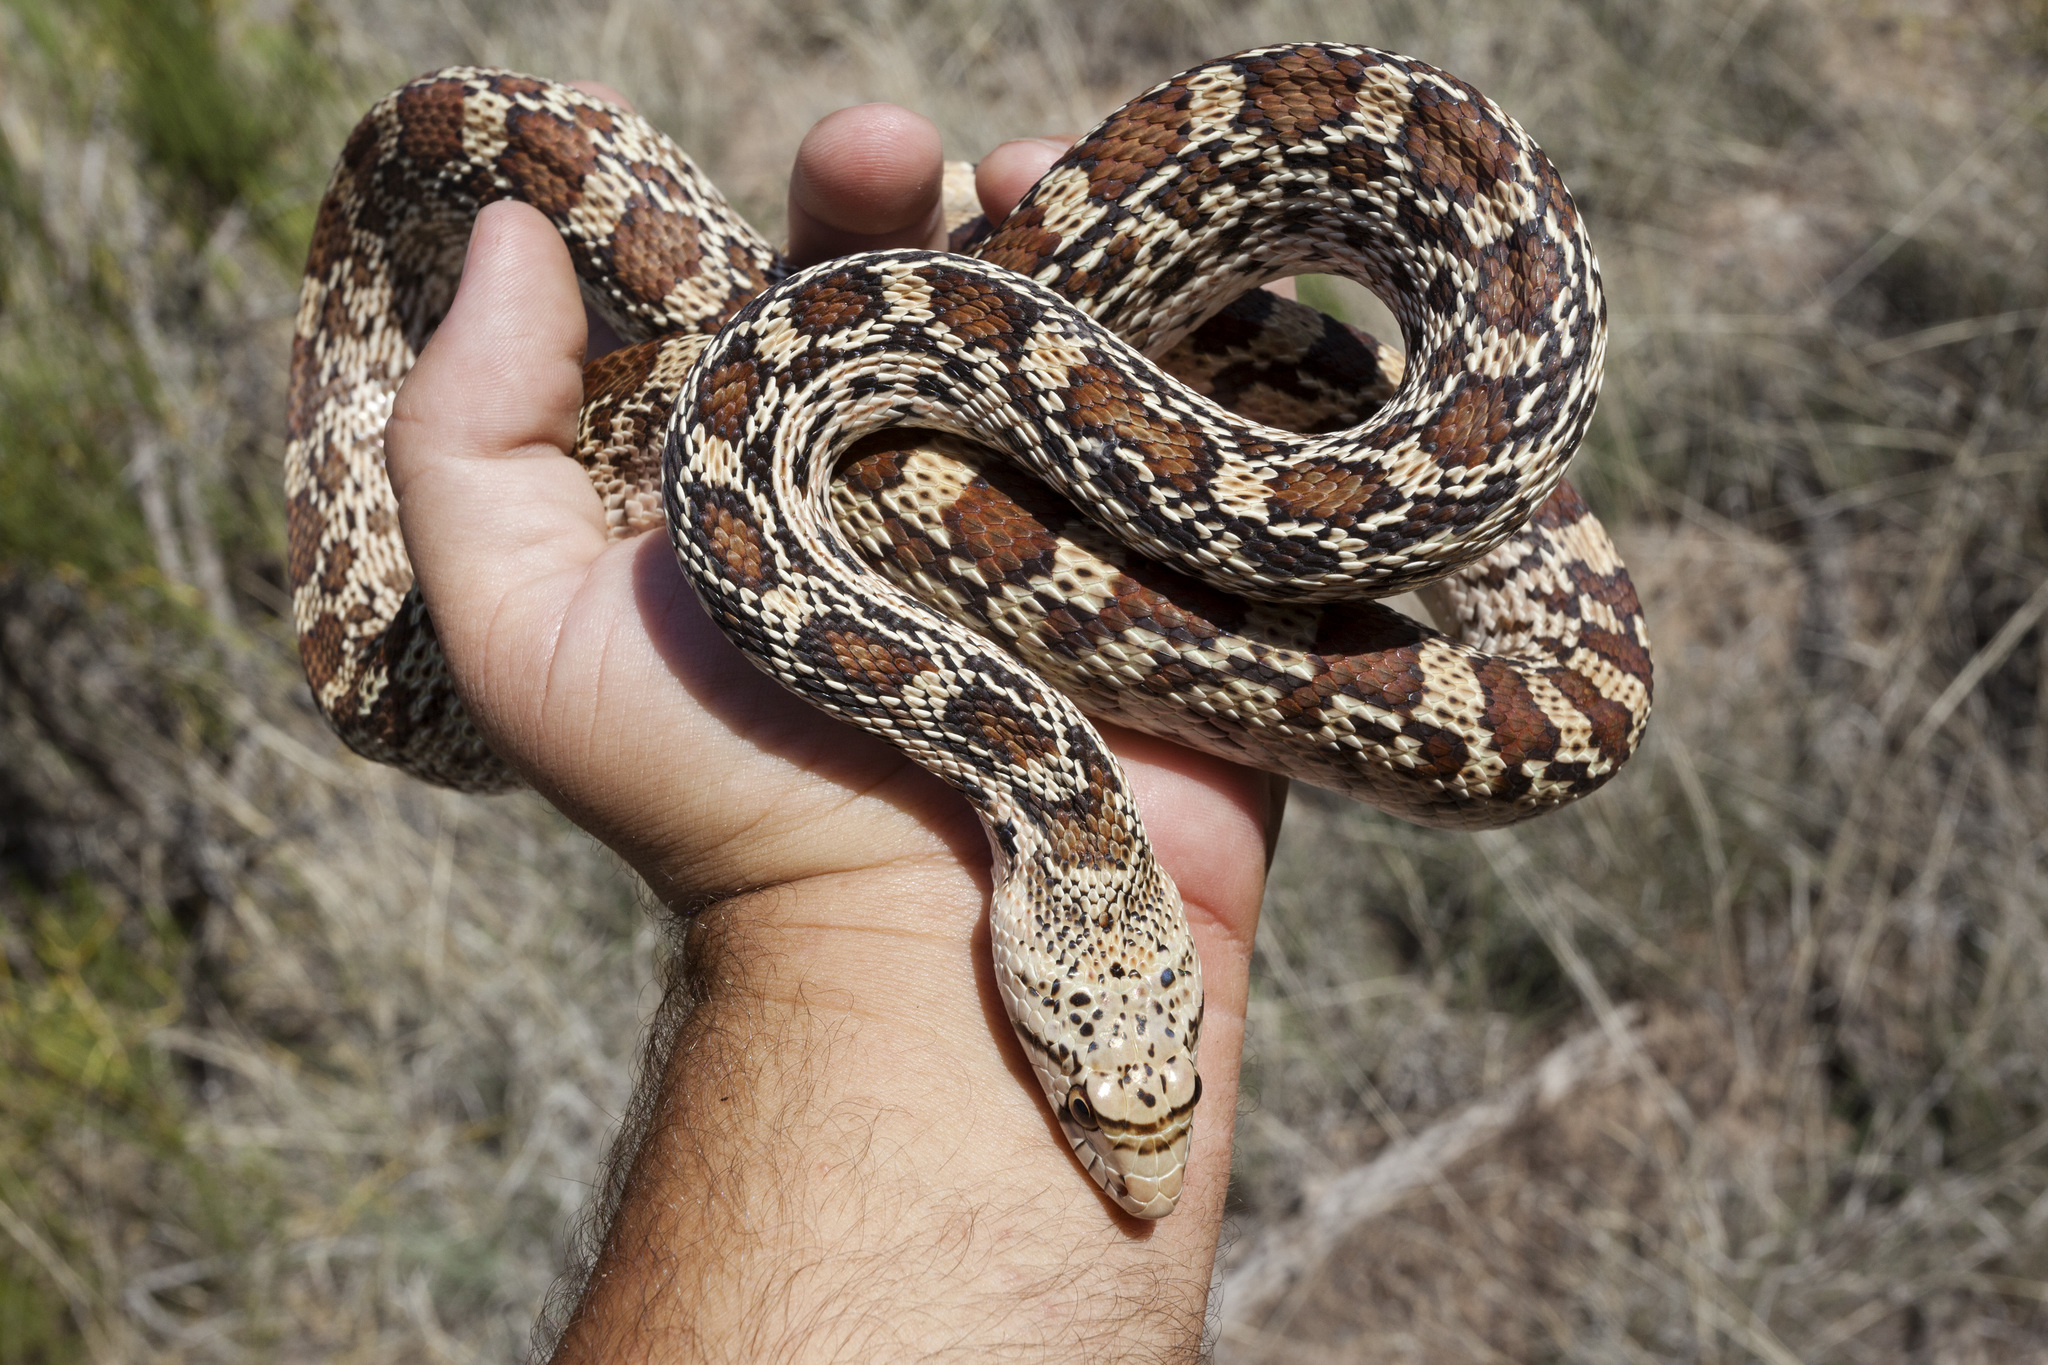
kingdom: Animalia
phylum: Chordata
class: Squamata
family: Colubridae
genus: Pituophis
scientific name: Pituophis catenifer
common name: Gopher snake
